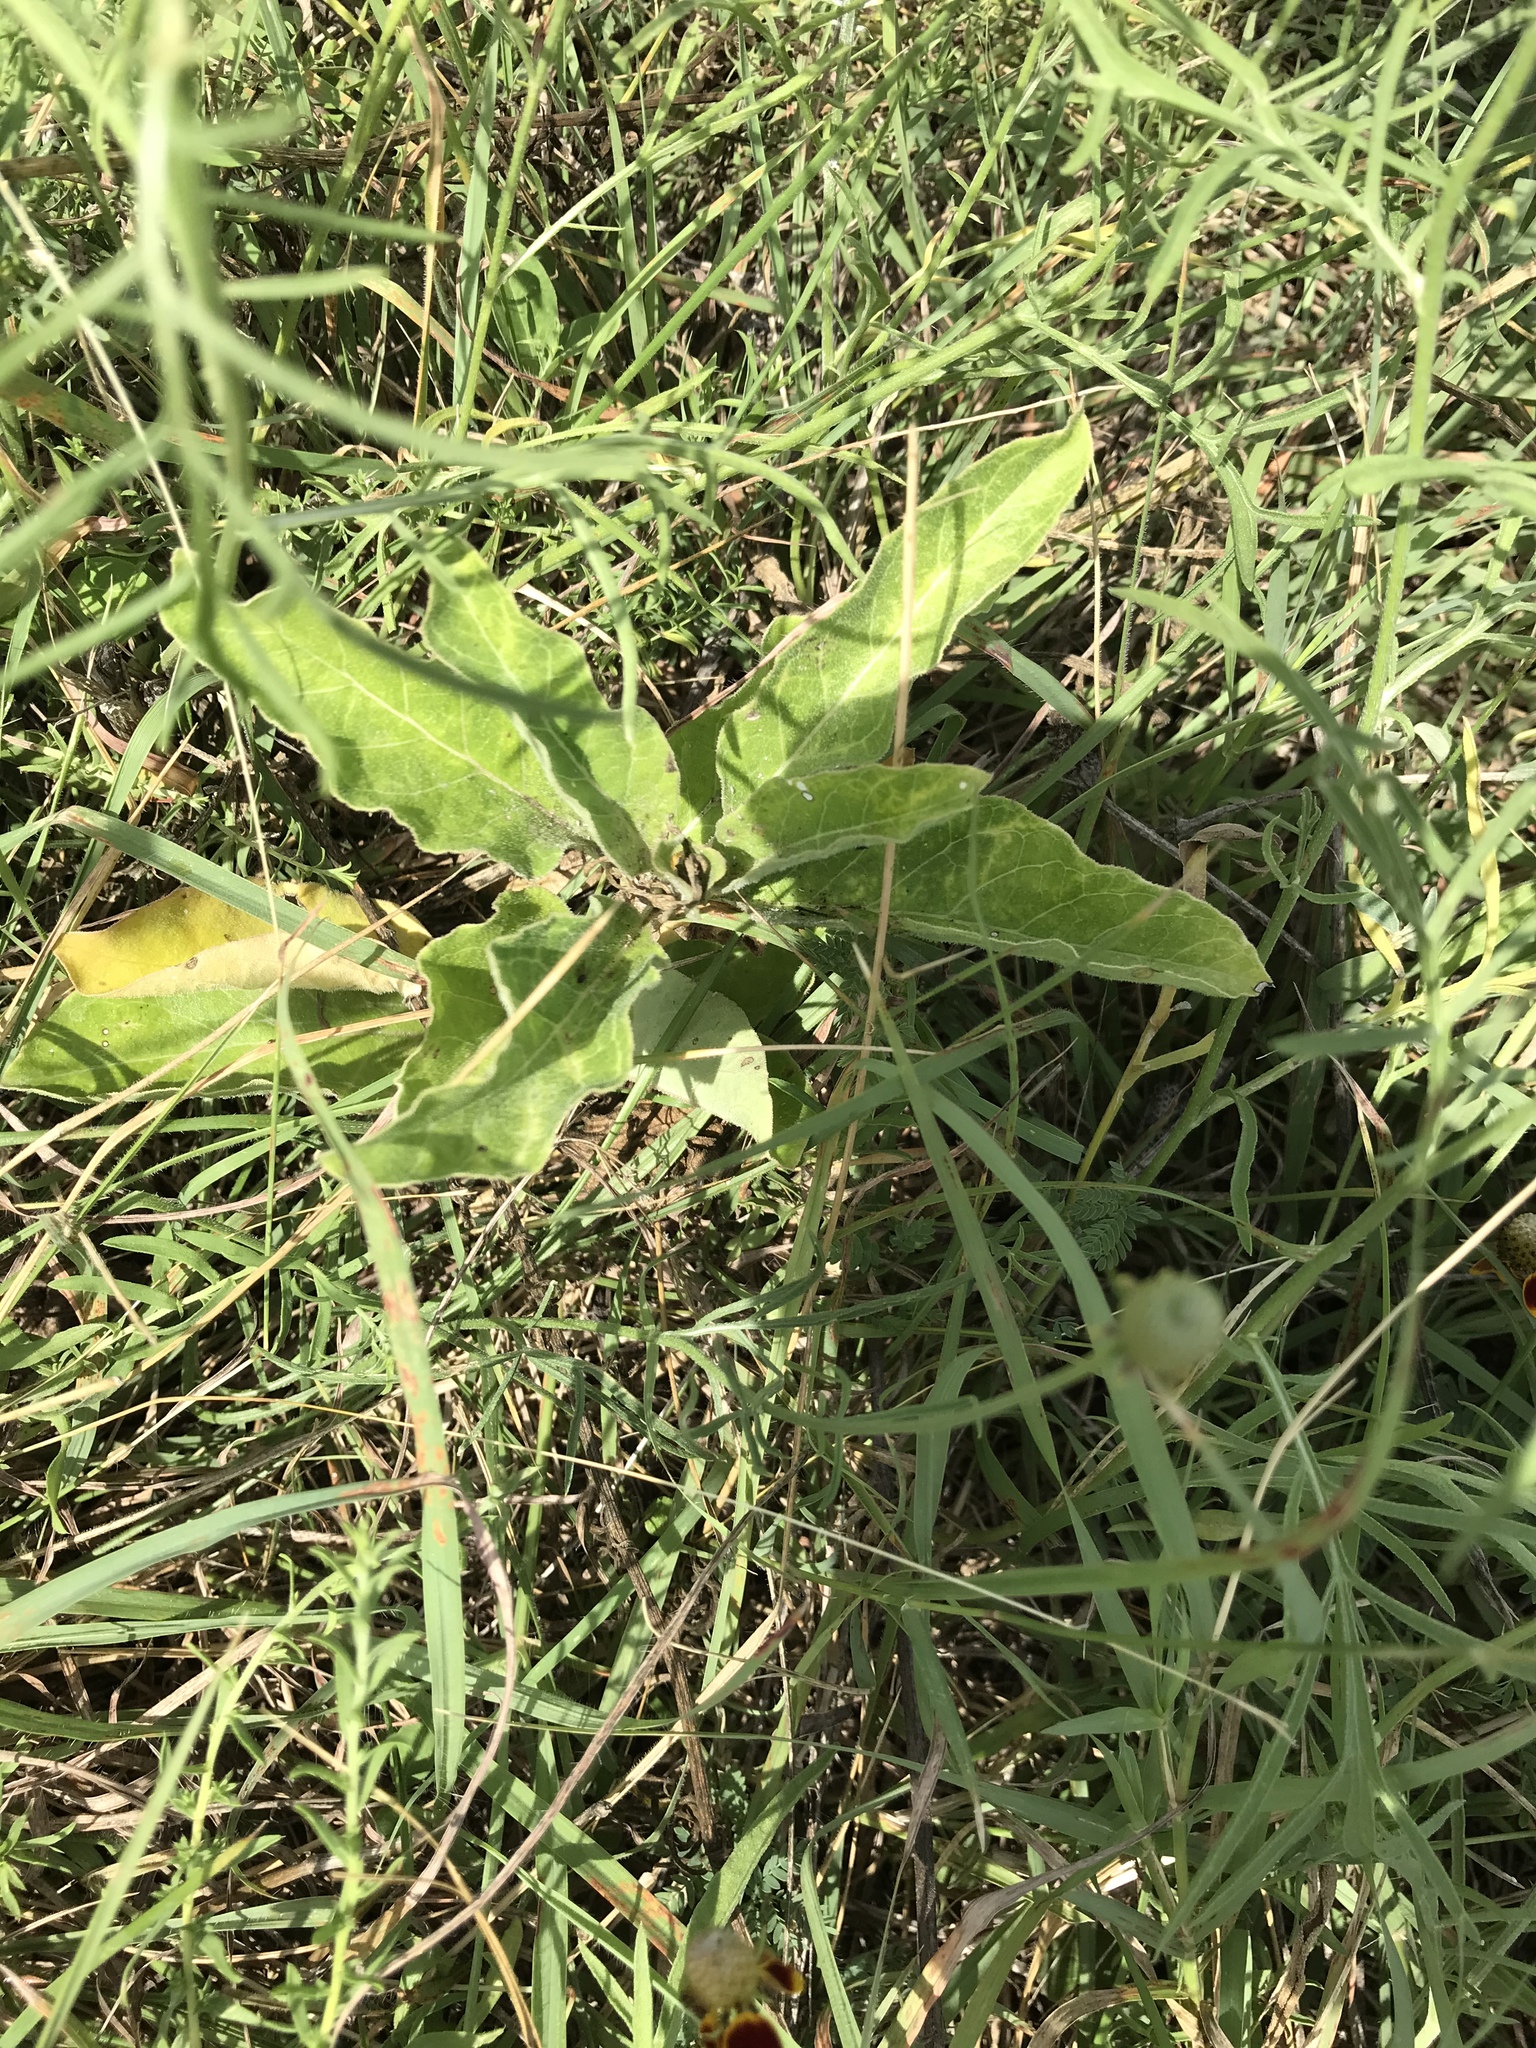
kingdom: Plantae
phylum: Tracheophyta
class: Magnoliopsida
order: Gentianales
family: Apocynaceae
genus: Asclepias
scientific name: Asclepias oenotheroides
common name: Zizotes milkweed
